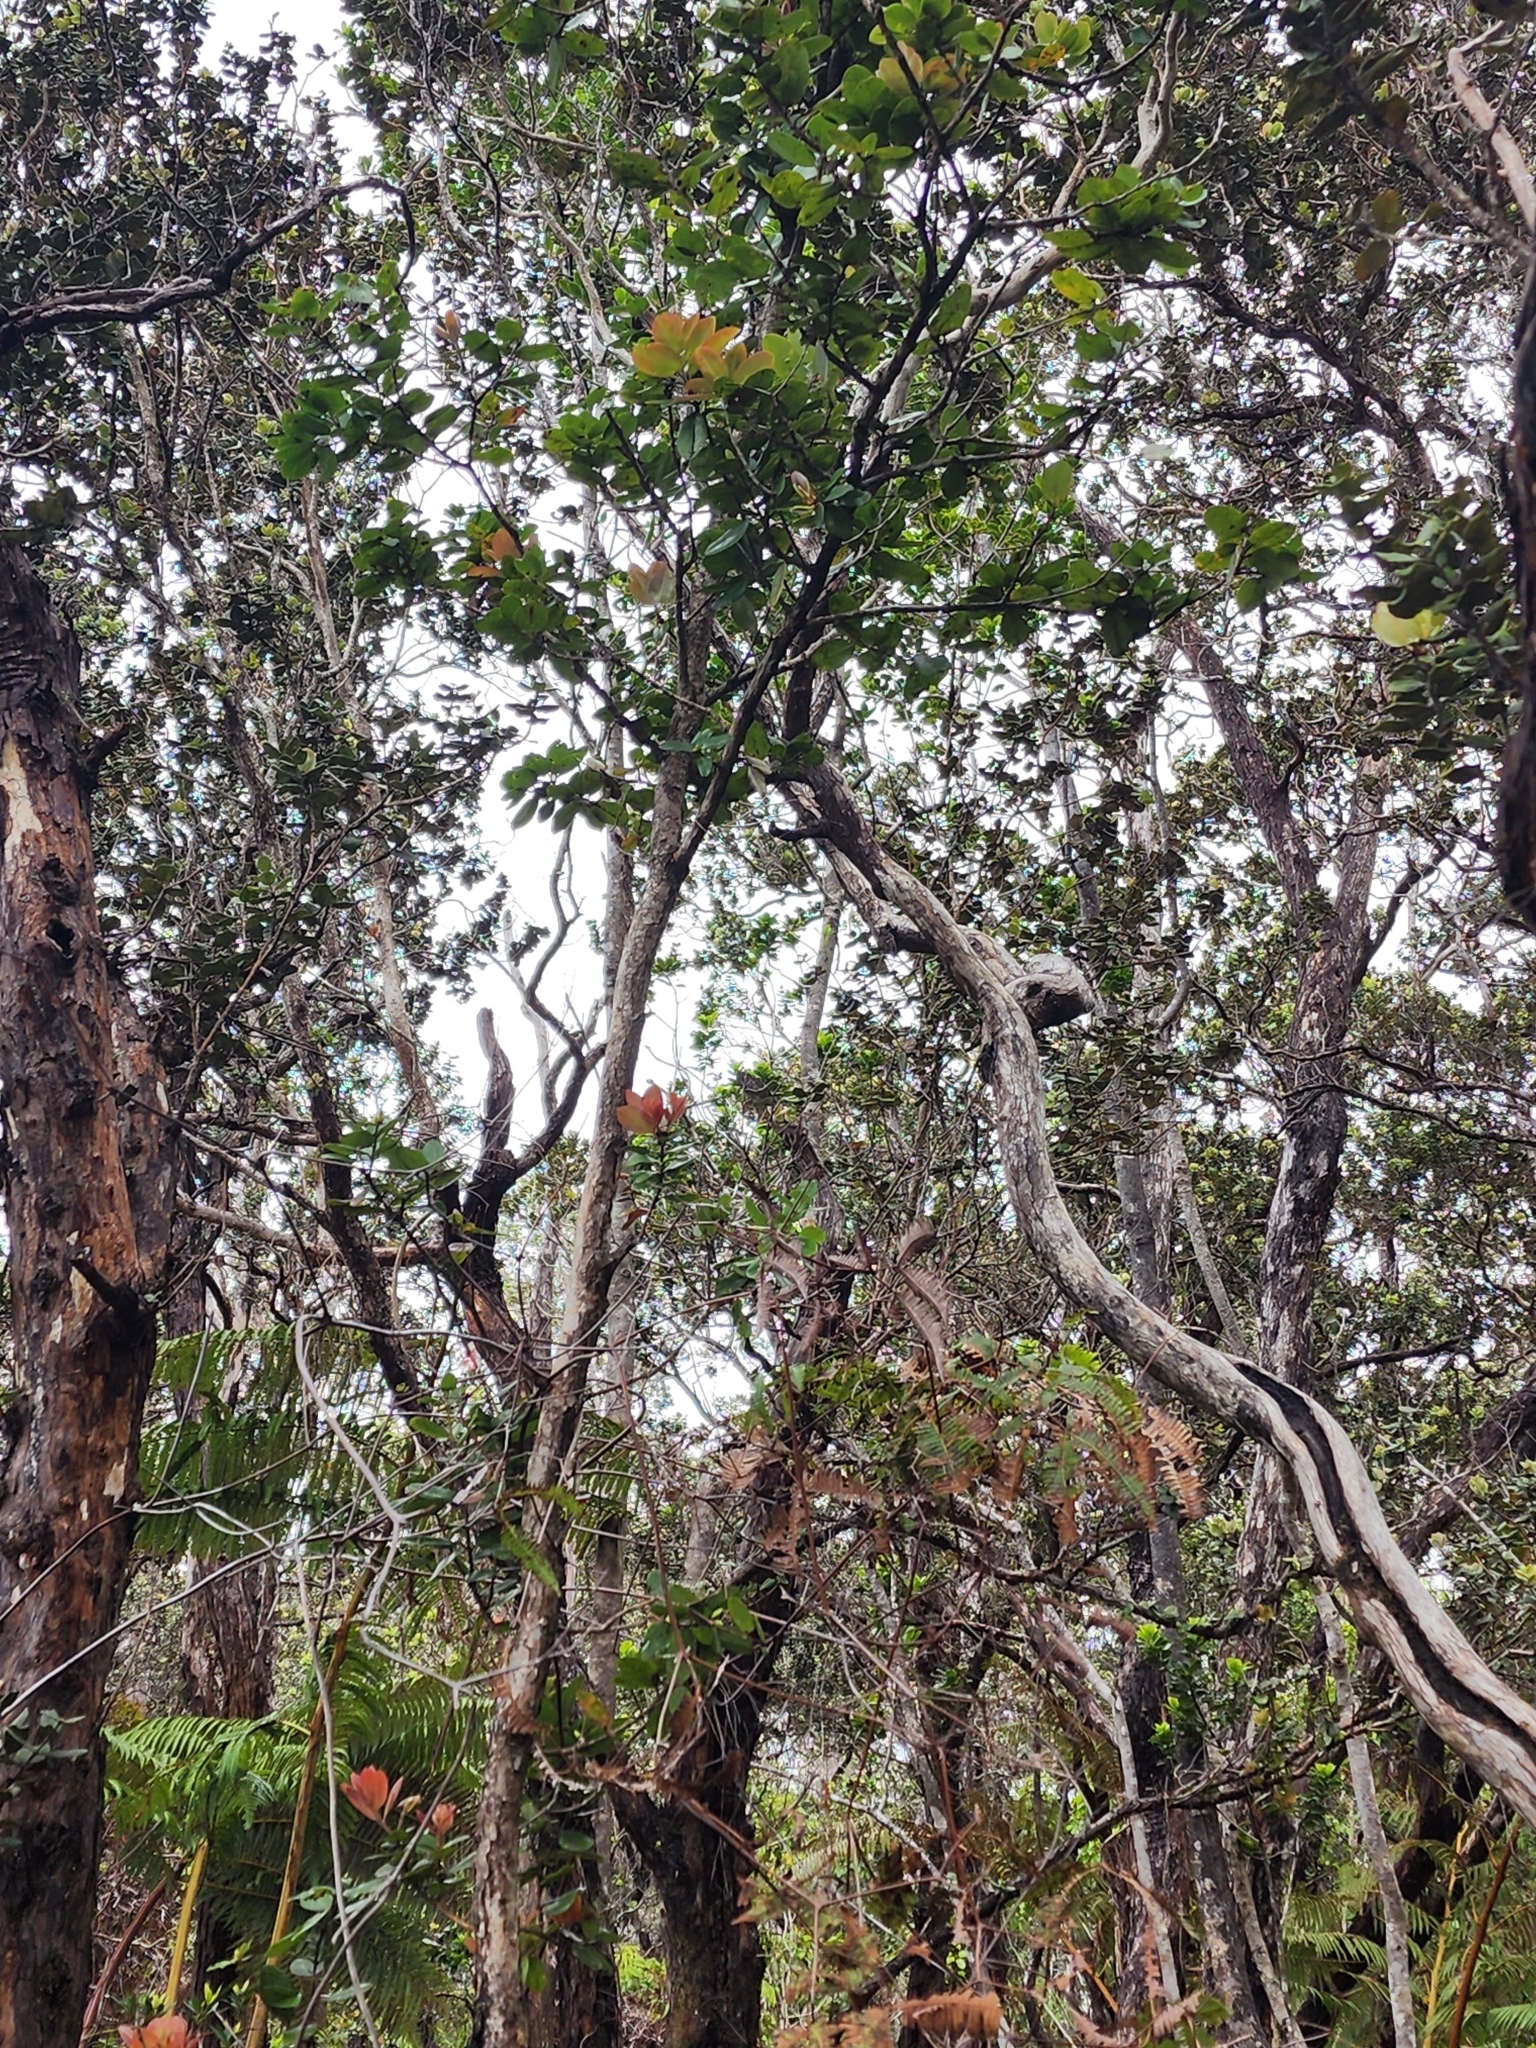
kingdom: Plantae
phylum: Tracheophyta
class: Magnoliopsida
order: Myrtales
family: Myrtaceae
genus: Metrosideros
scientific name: Metrosideros polymorpha
